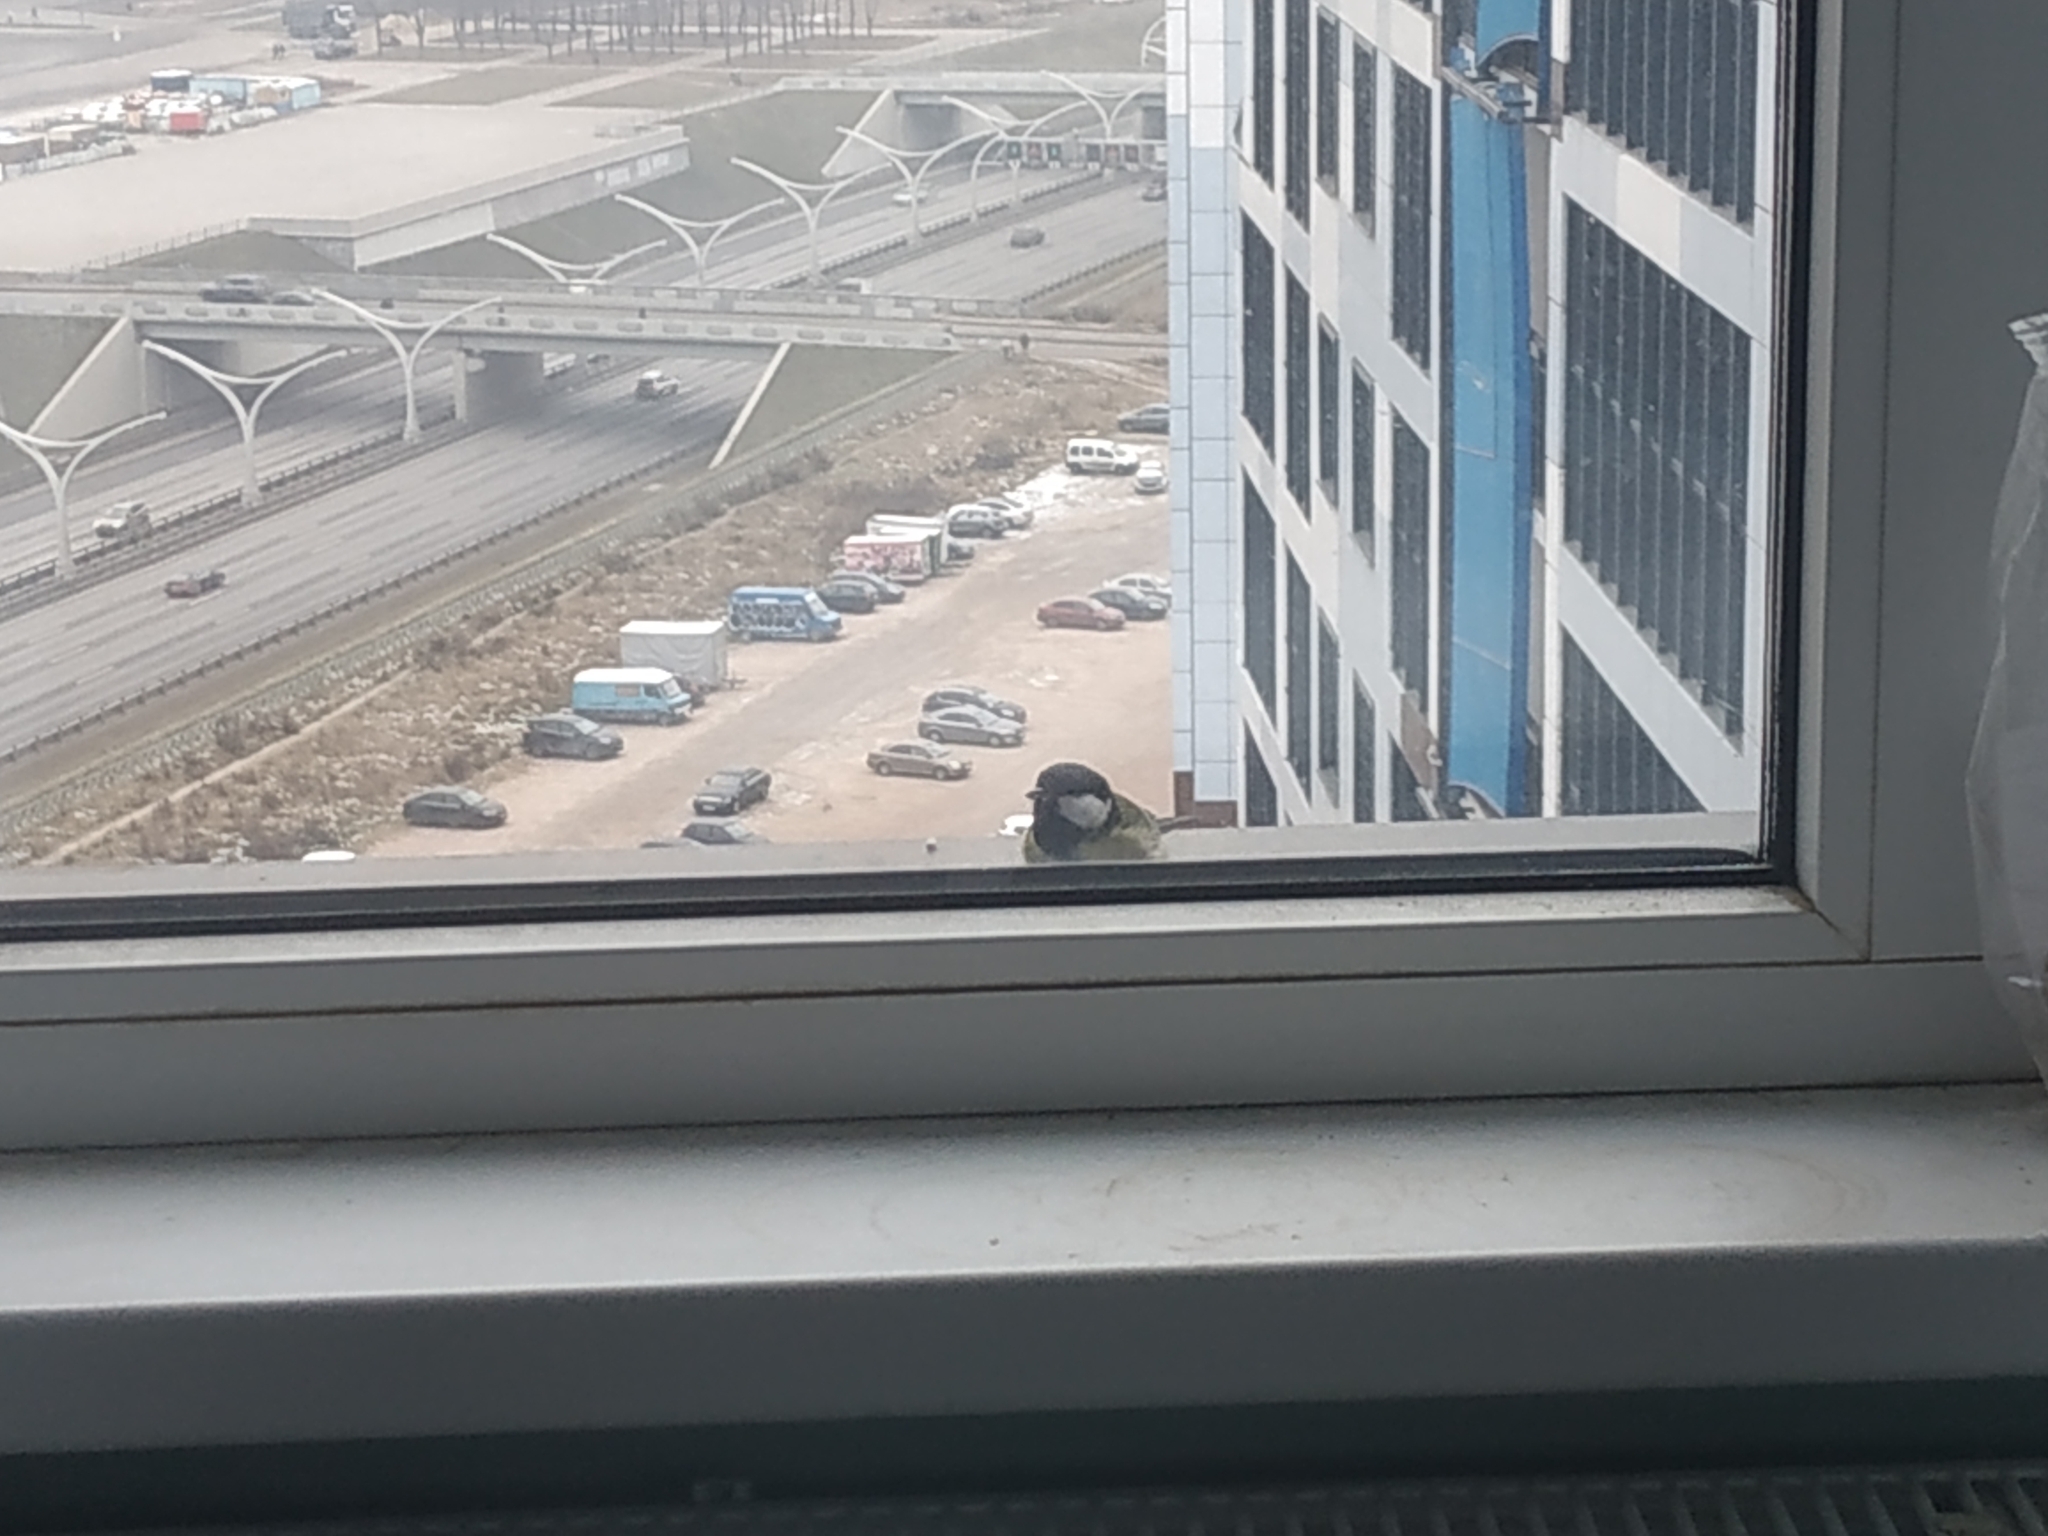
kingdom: Animalia
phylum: Chordata
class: Aves
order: Passeriformes
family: Paridae
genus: Parus
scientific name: Parus major
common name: Great tit
